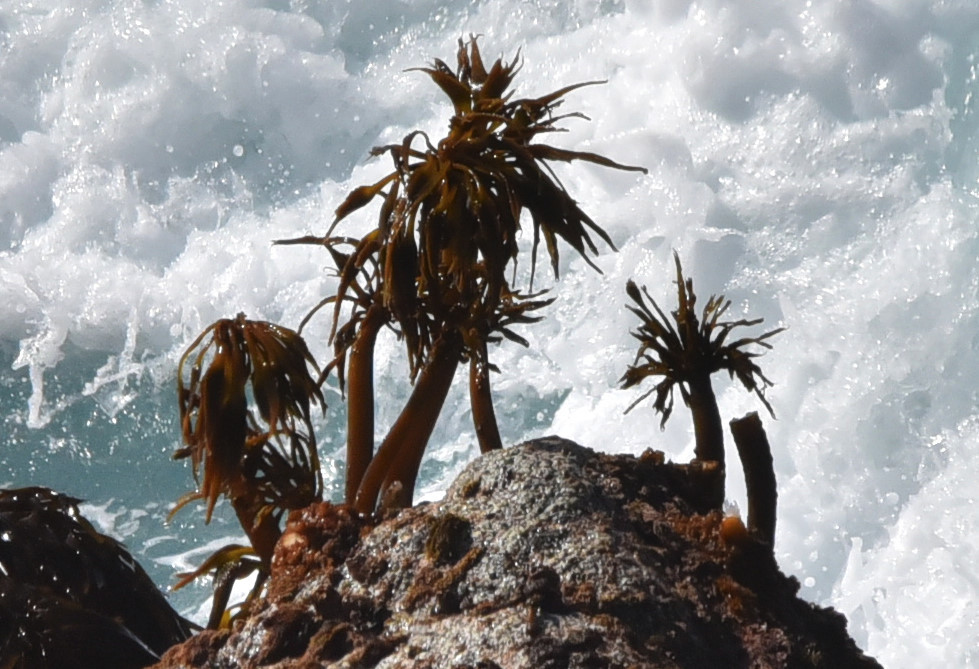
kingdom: Chromista
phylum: Ochrophyta
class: Phaeophyceae
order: Laminariales
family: Laminariaceae
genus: Postelsia
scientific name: Postelsia palmiformis
